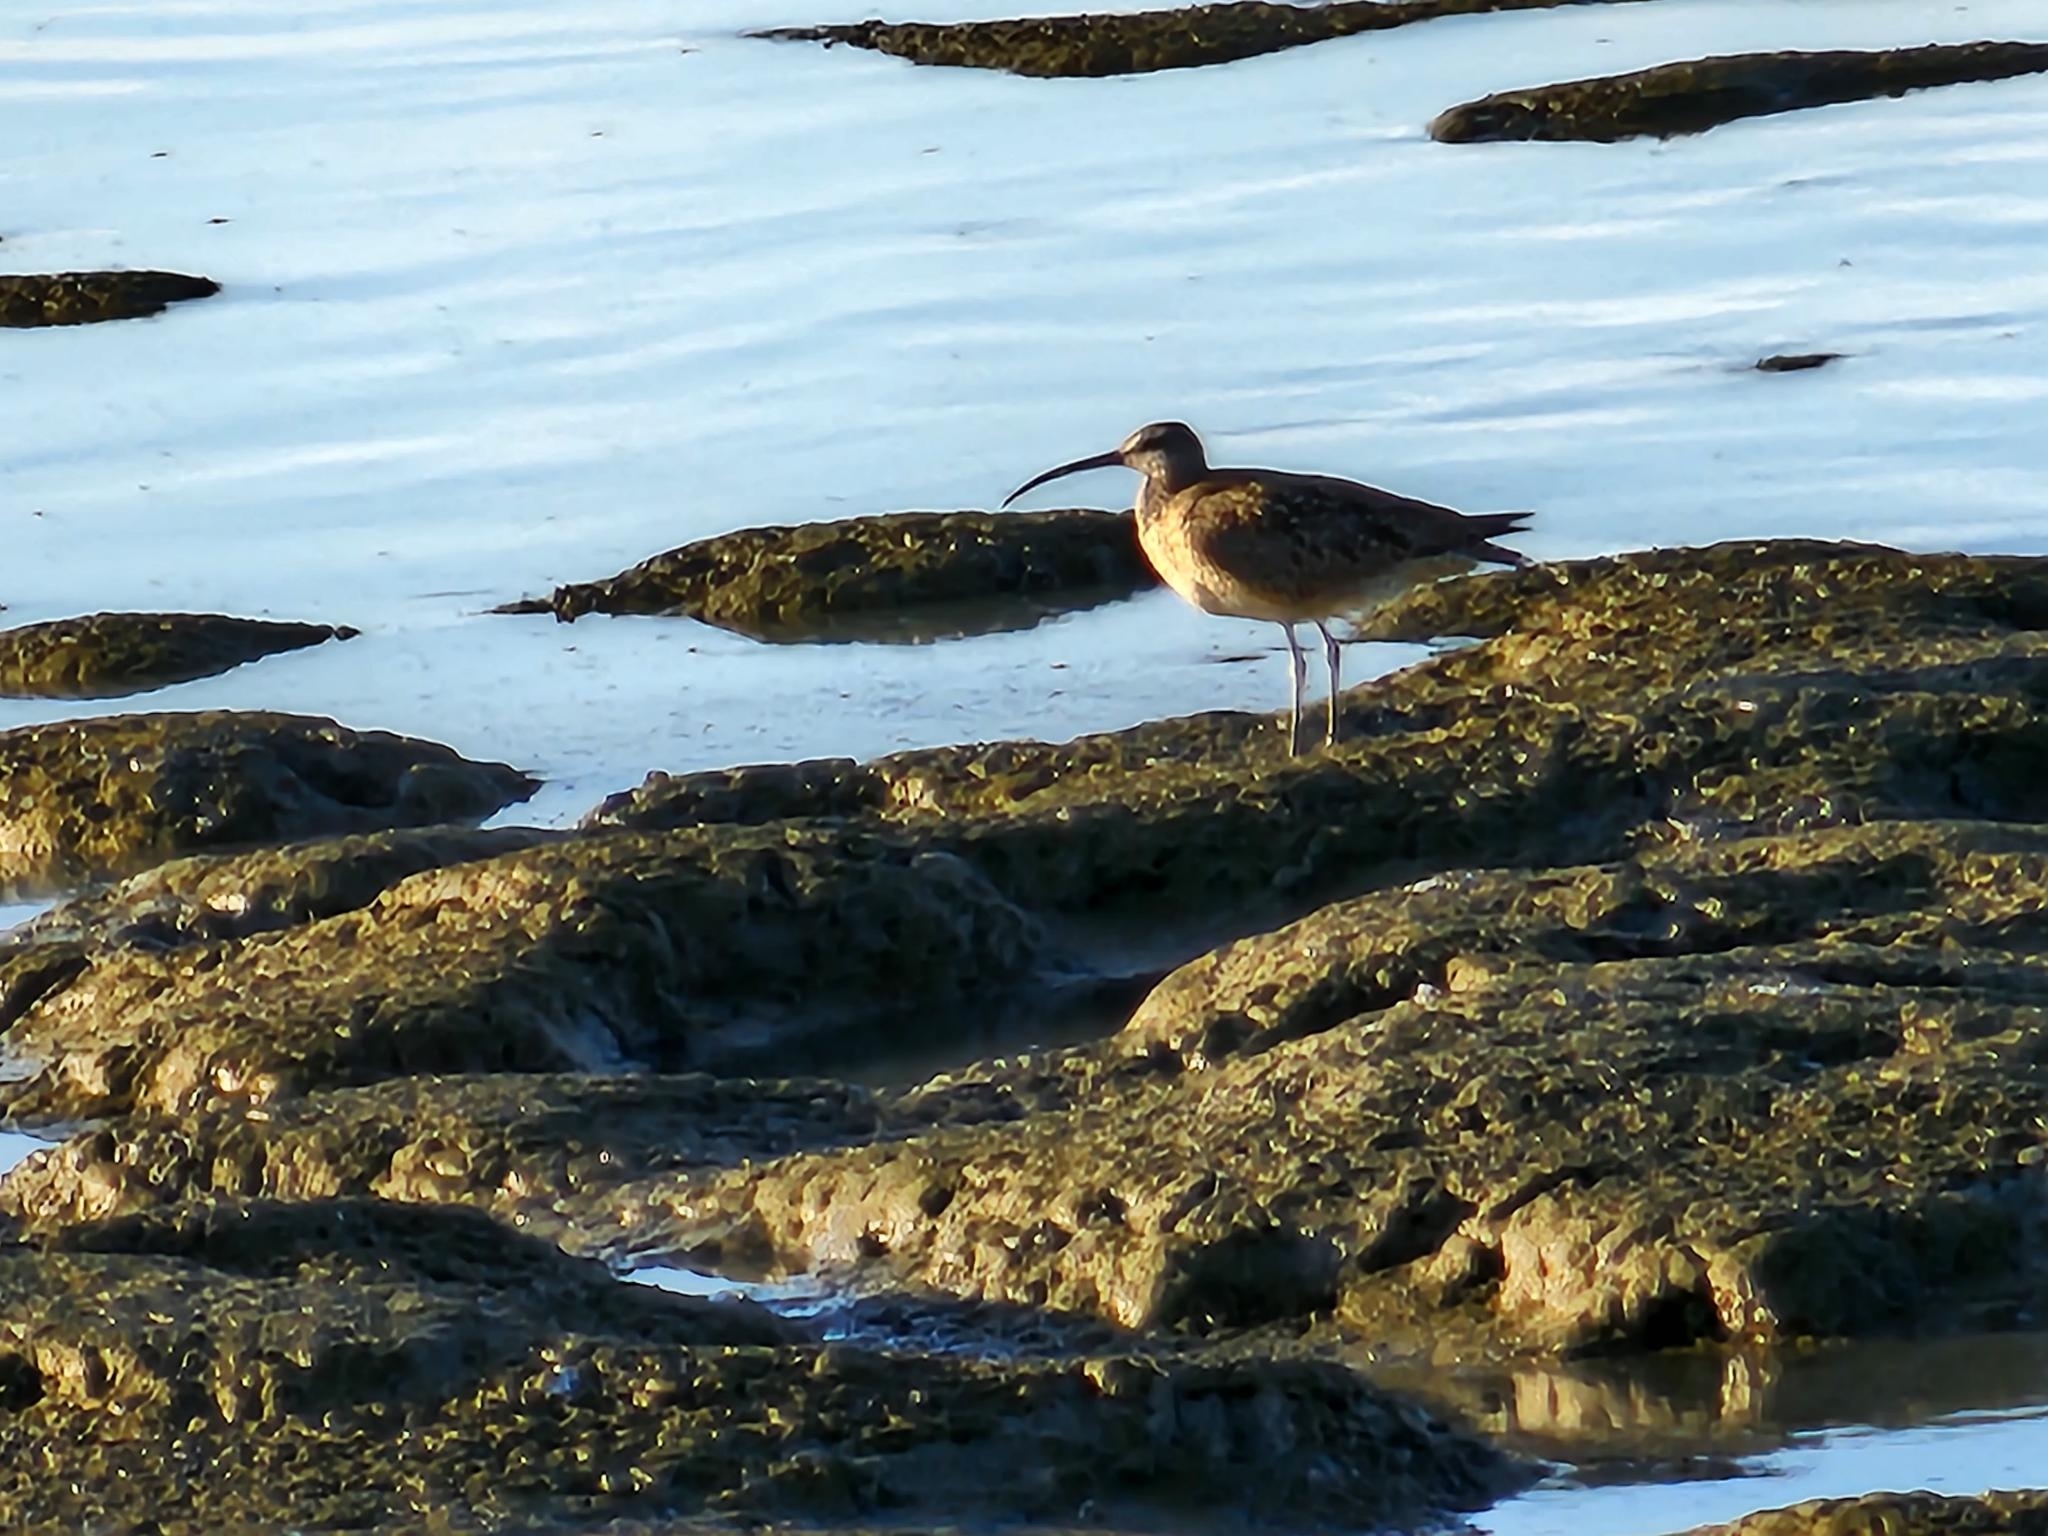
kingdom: Animalia
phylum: Chordata
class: Aves
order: Charadriiformes
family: Scolopacidae
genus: Numenius
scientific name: Numenius phaeopus
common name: Whimbrel
